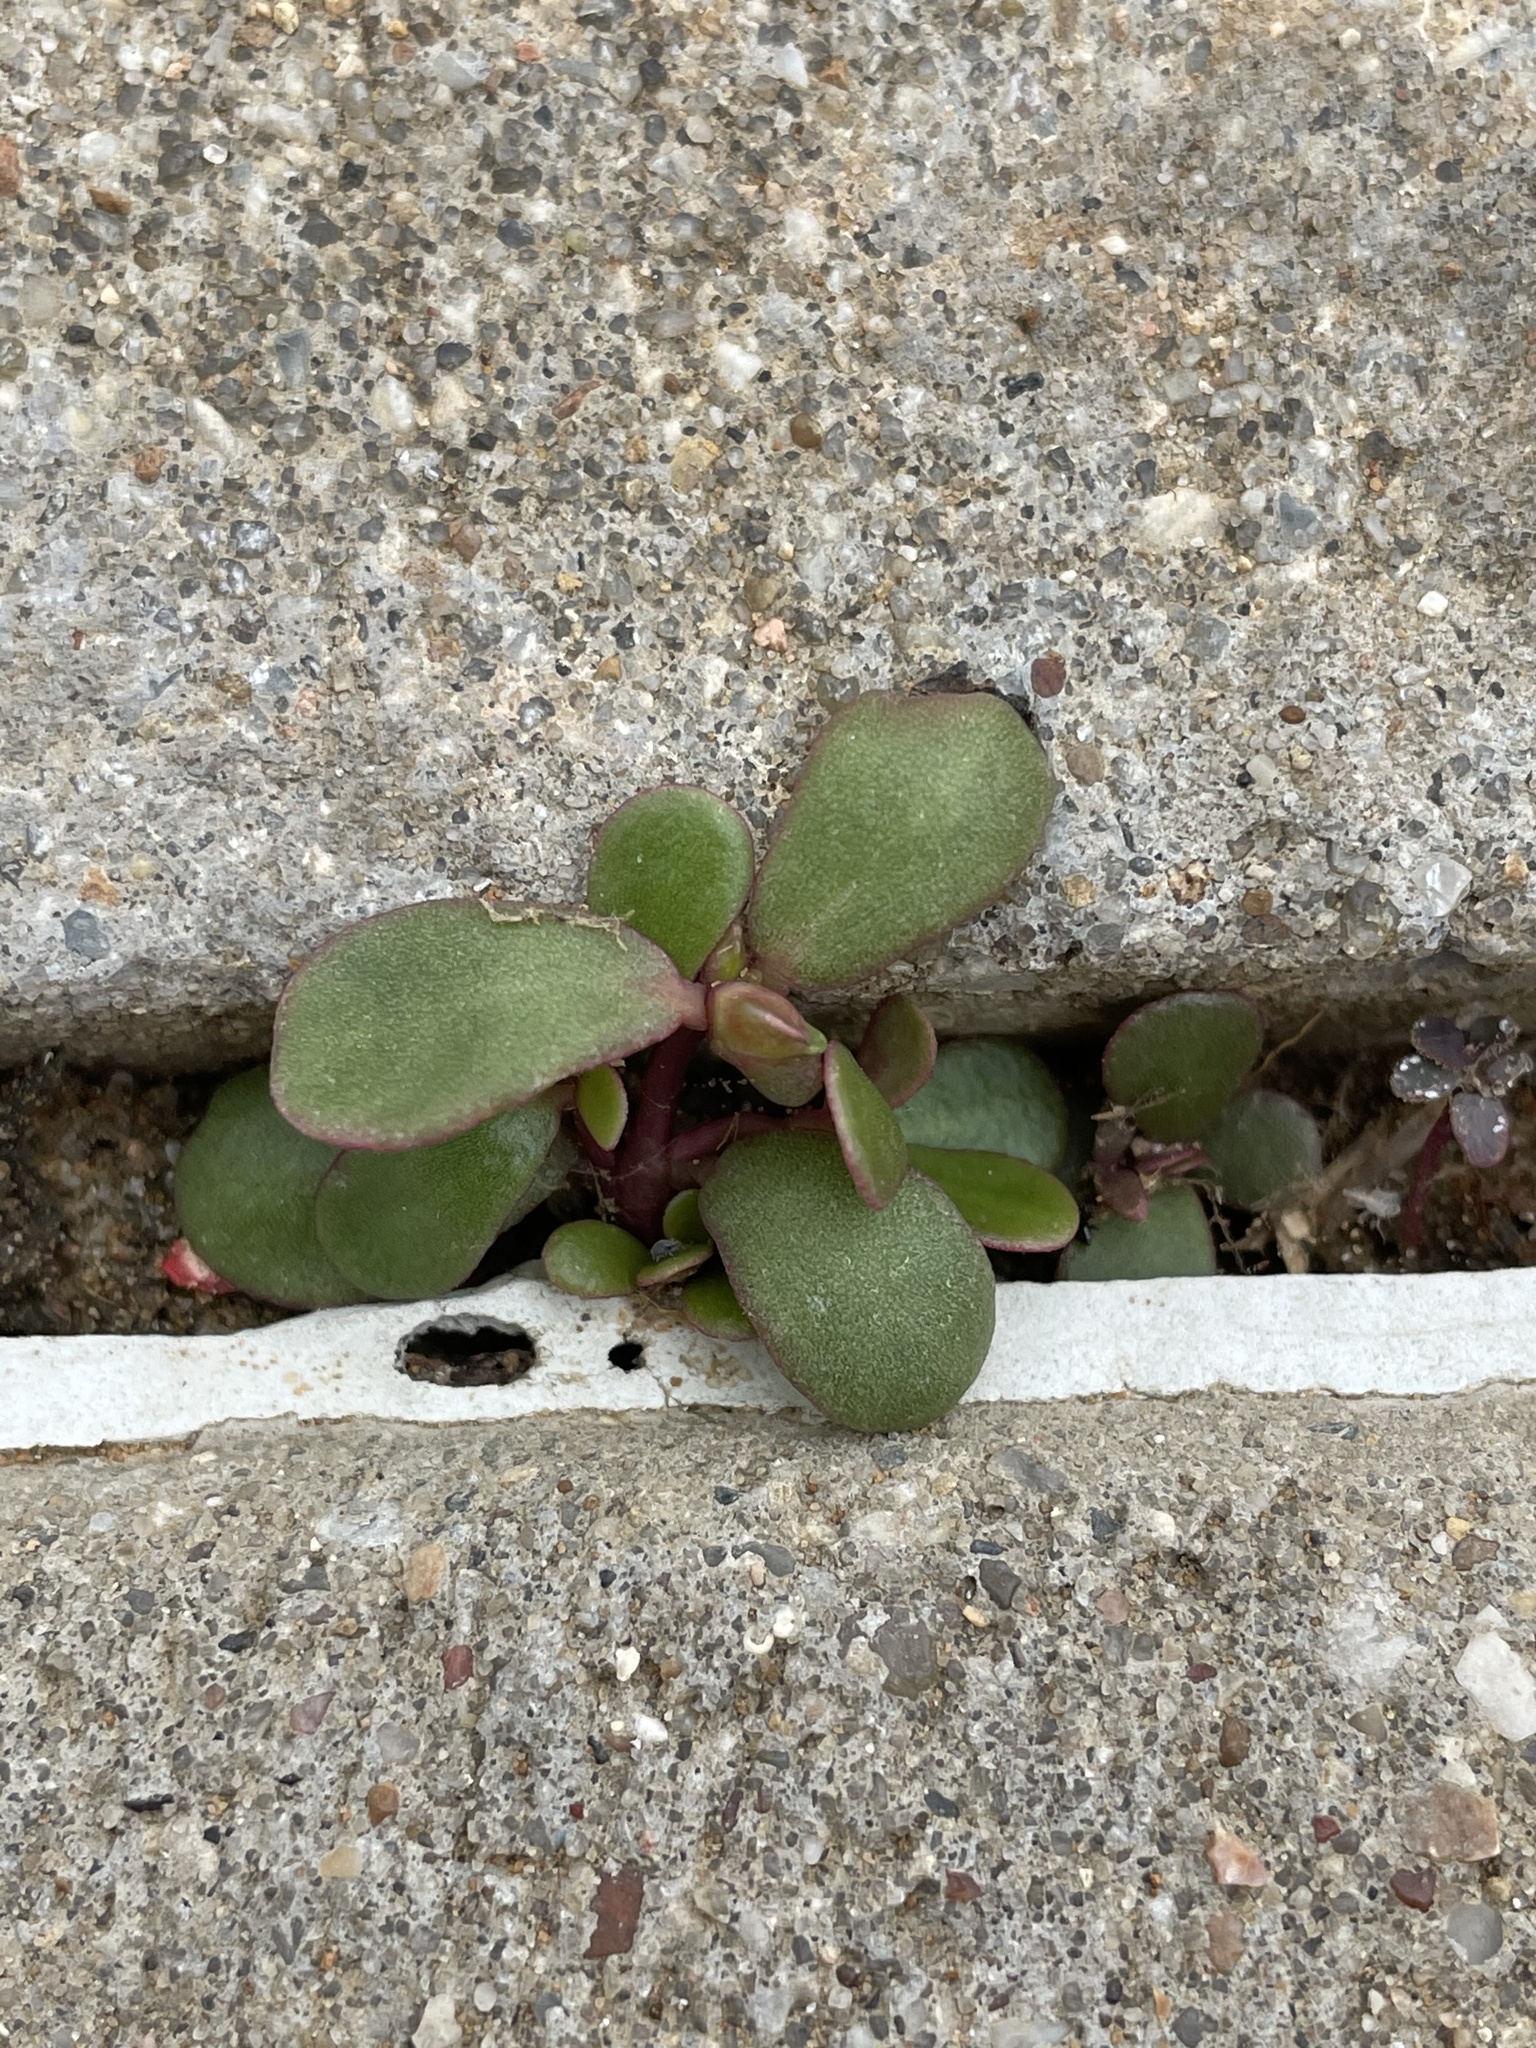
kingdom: Plantae
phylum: Tracheophyta
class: Magnoliopsida
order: Caryophyllales
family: Portulacaceae
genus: Portulaca
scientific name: Portulaca oleracea
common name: Common purslane
